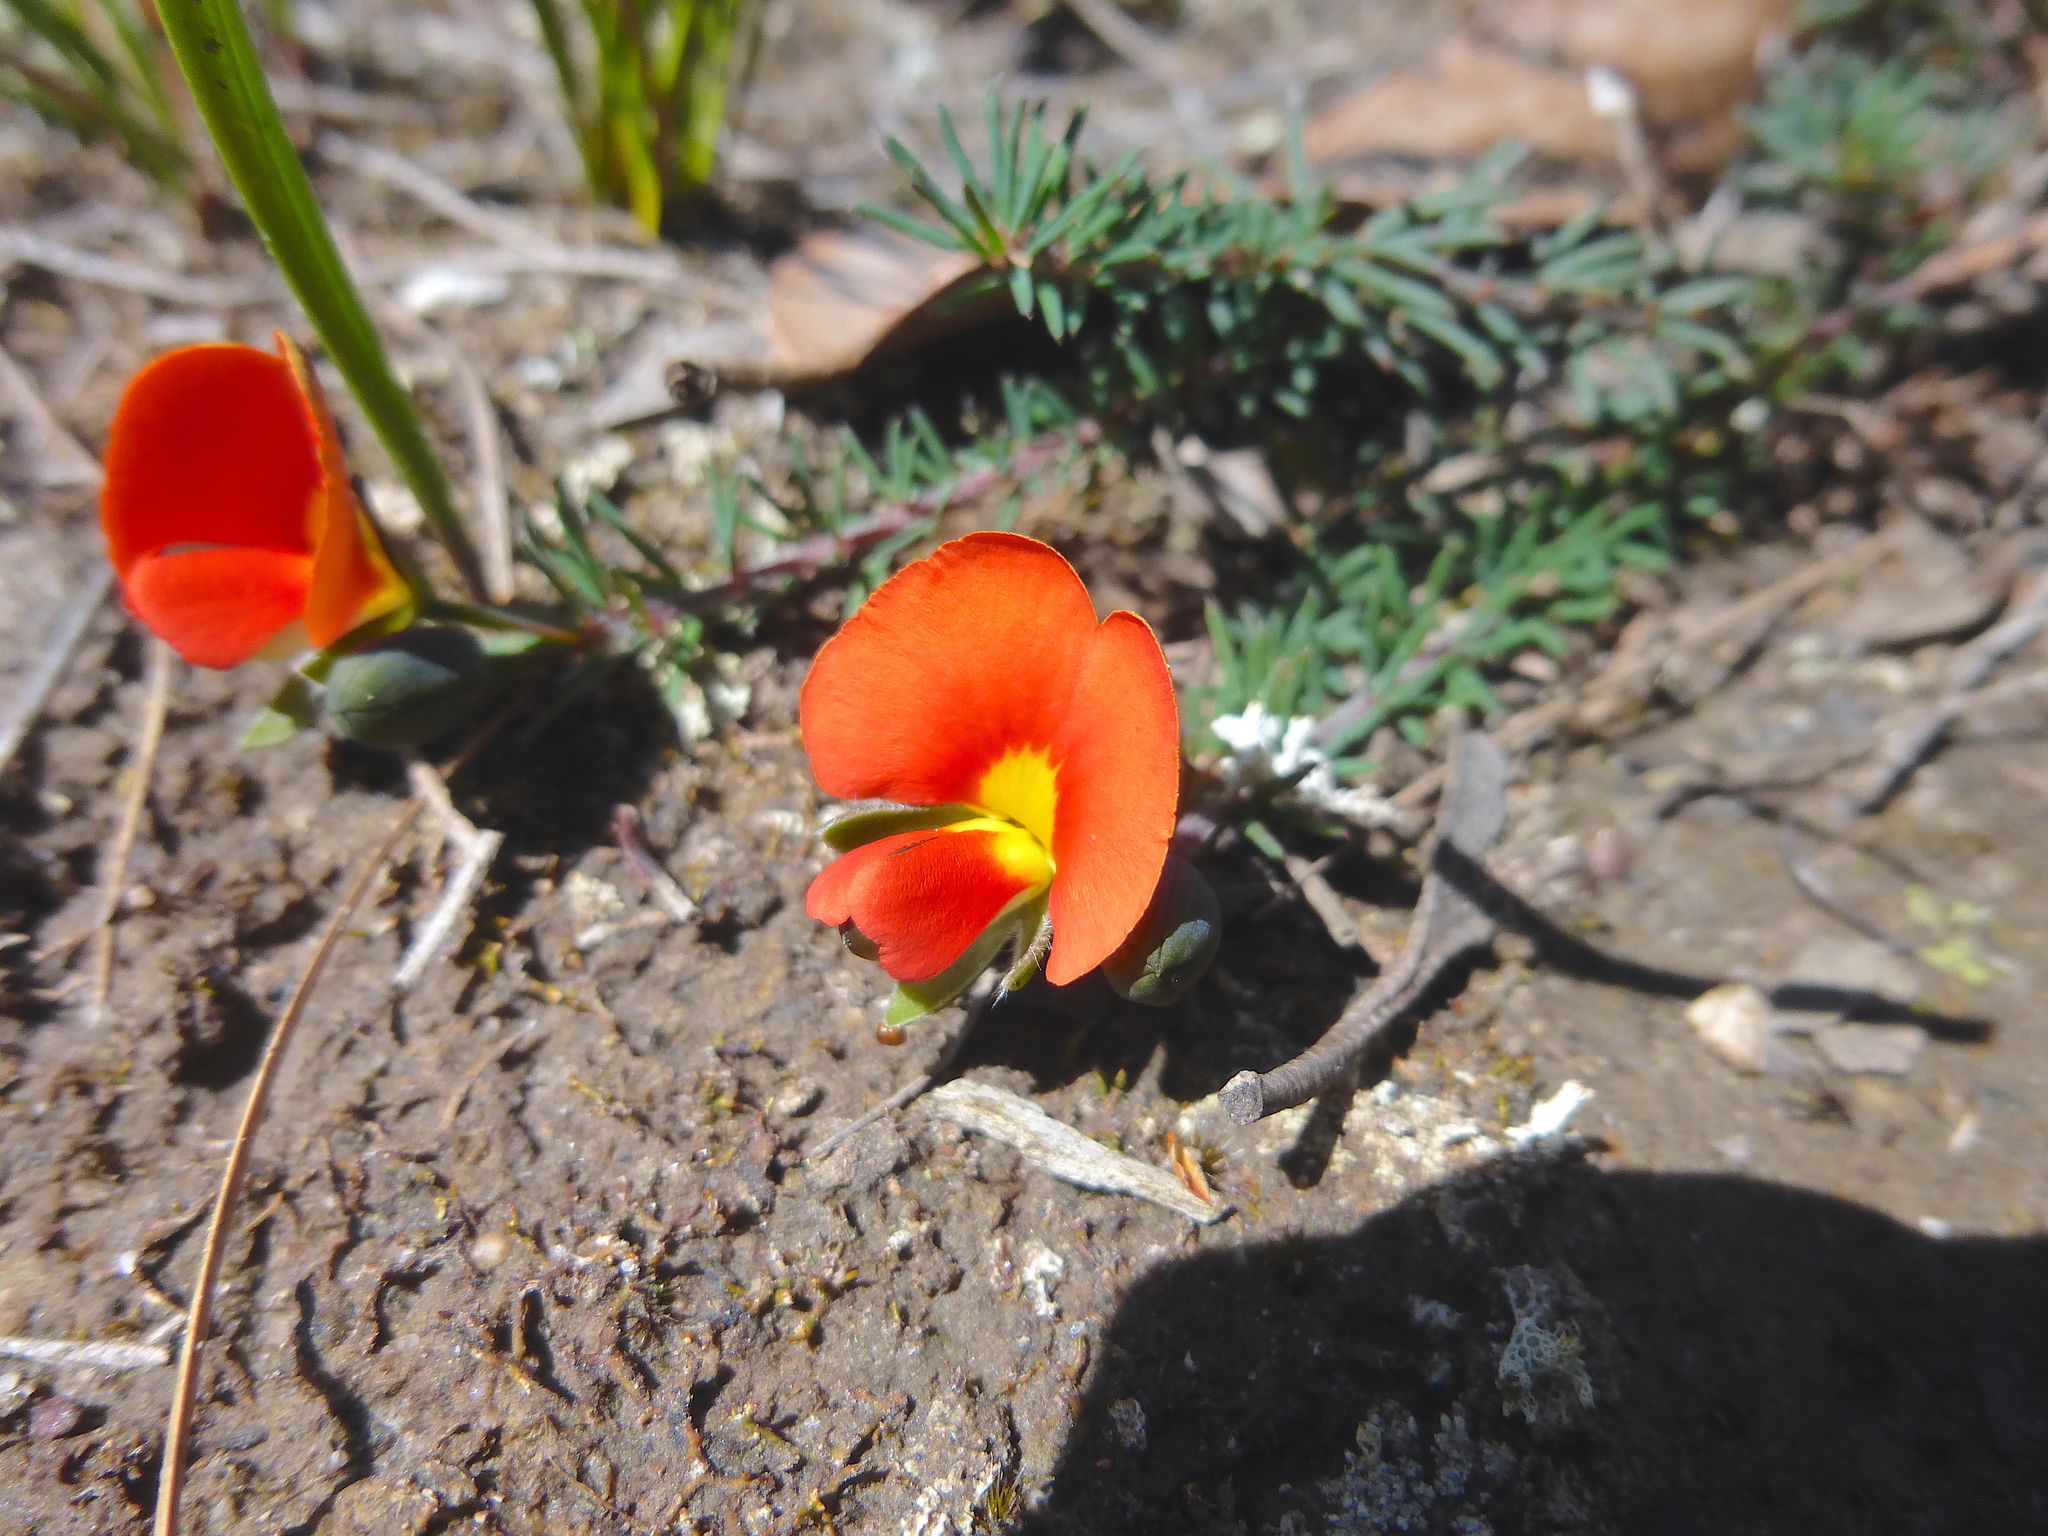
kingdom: Plantae
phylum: Tracheophyta
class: Magnoliopsida
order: Fabales
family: Fabaceae
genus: Gompholobium
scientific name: Gompholobium ecostatum
